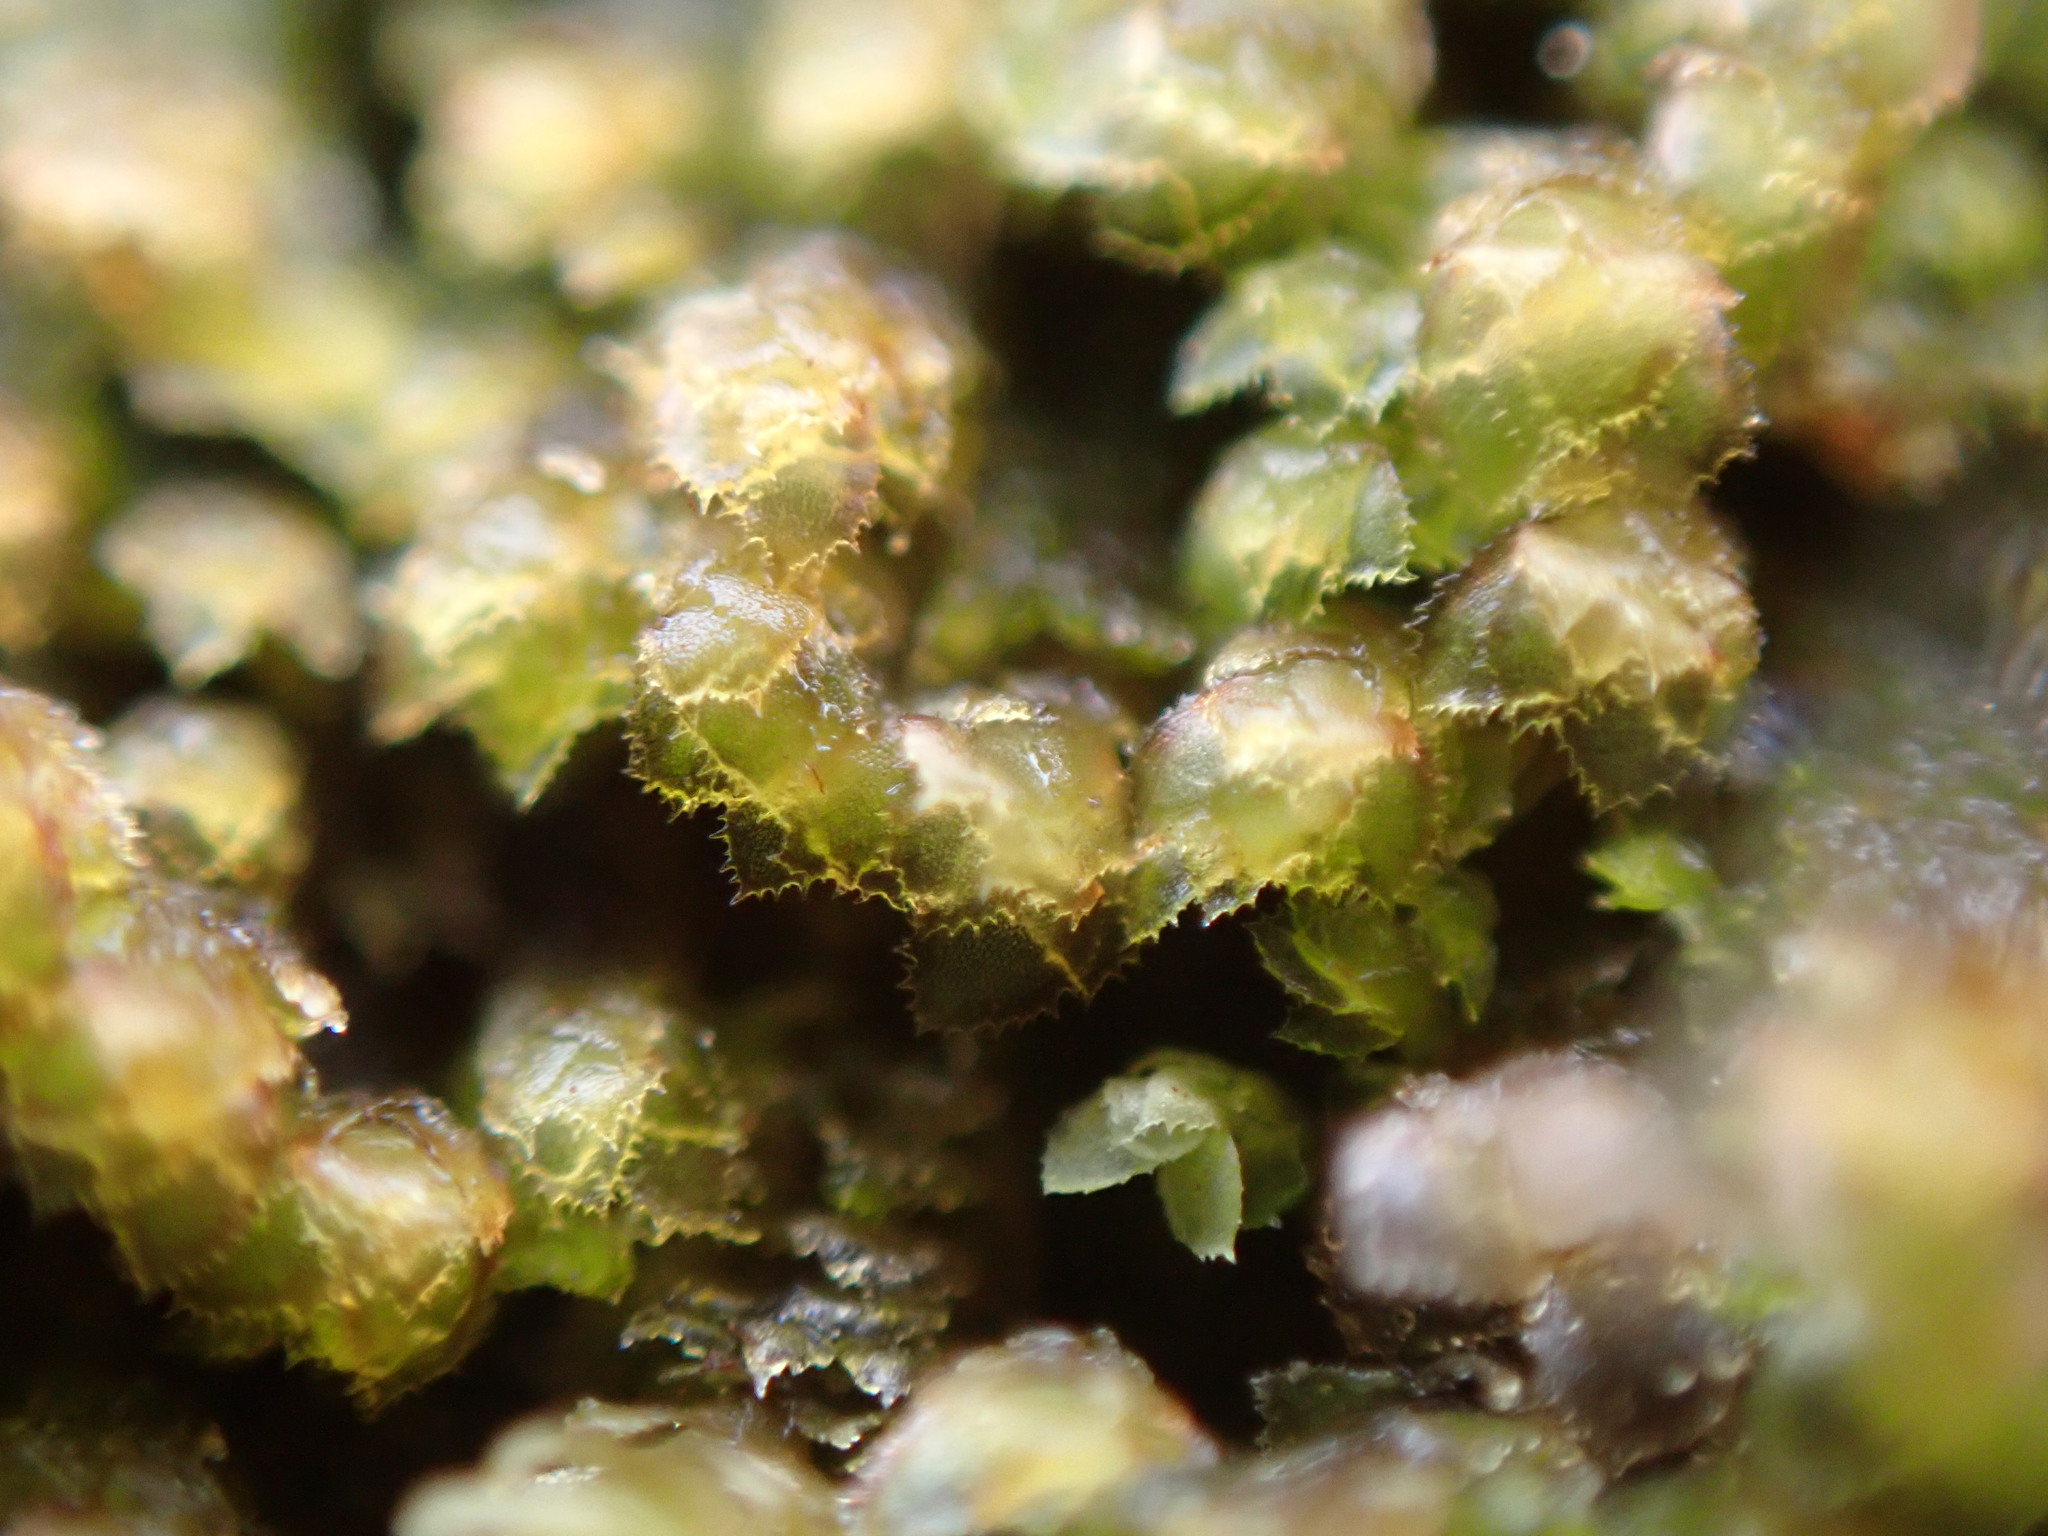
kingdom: Plantae
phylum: Marchantiophyta
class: Jungermanniopsida
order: Jungermanniales
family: Scapaniaceae
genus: Scapania
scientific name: Scapania umbrosa
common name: Shady earwort
